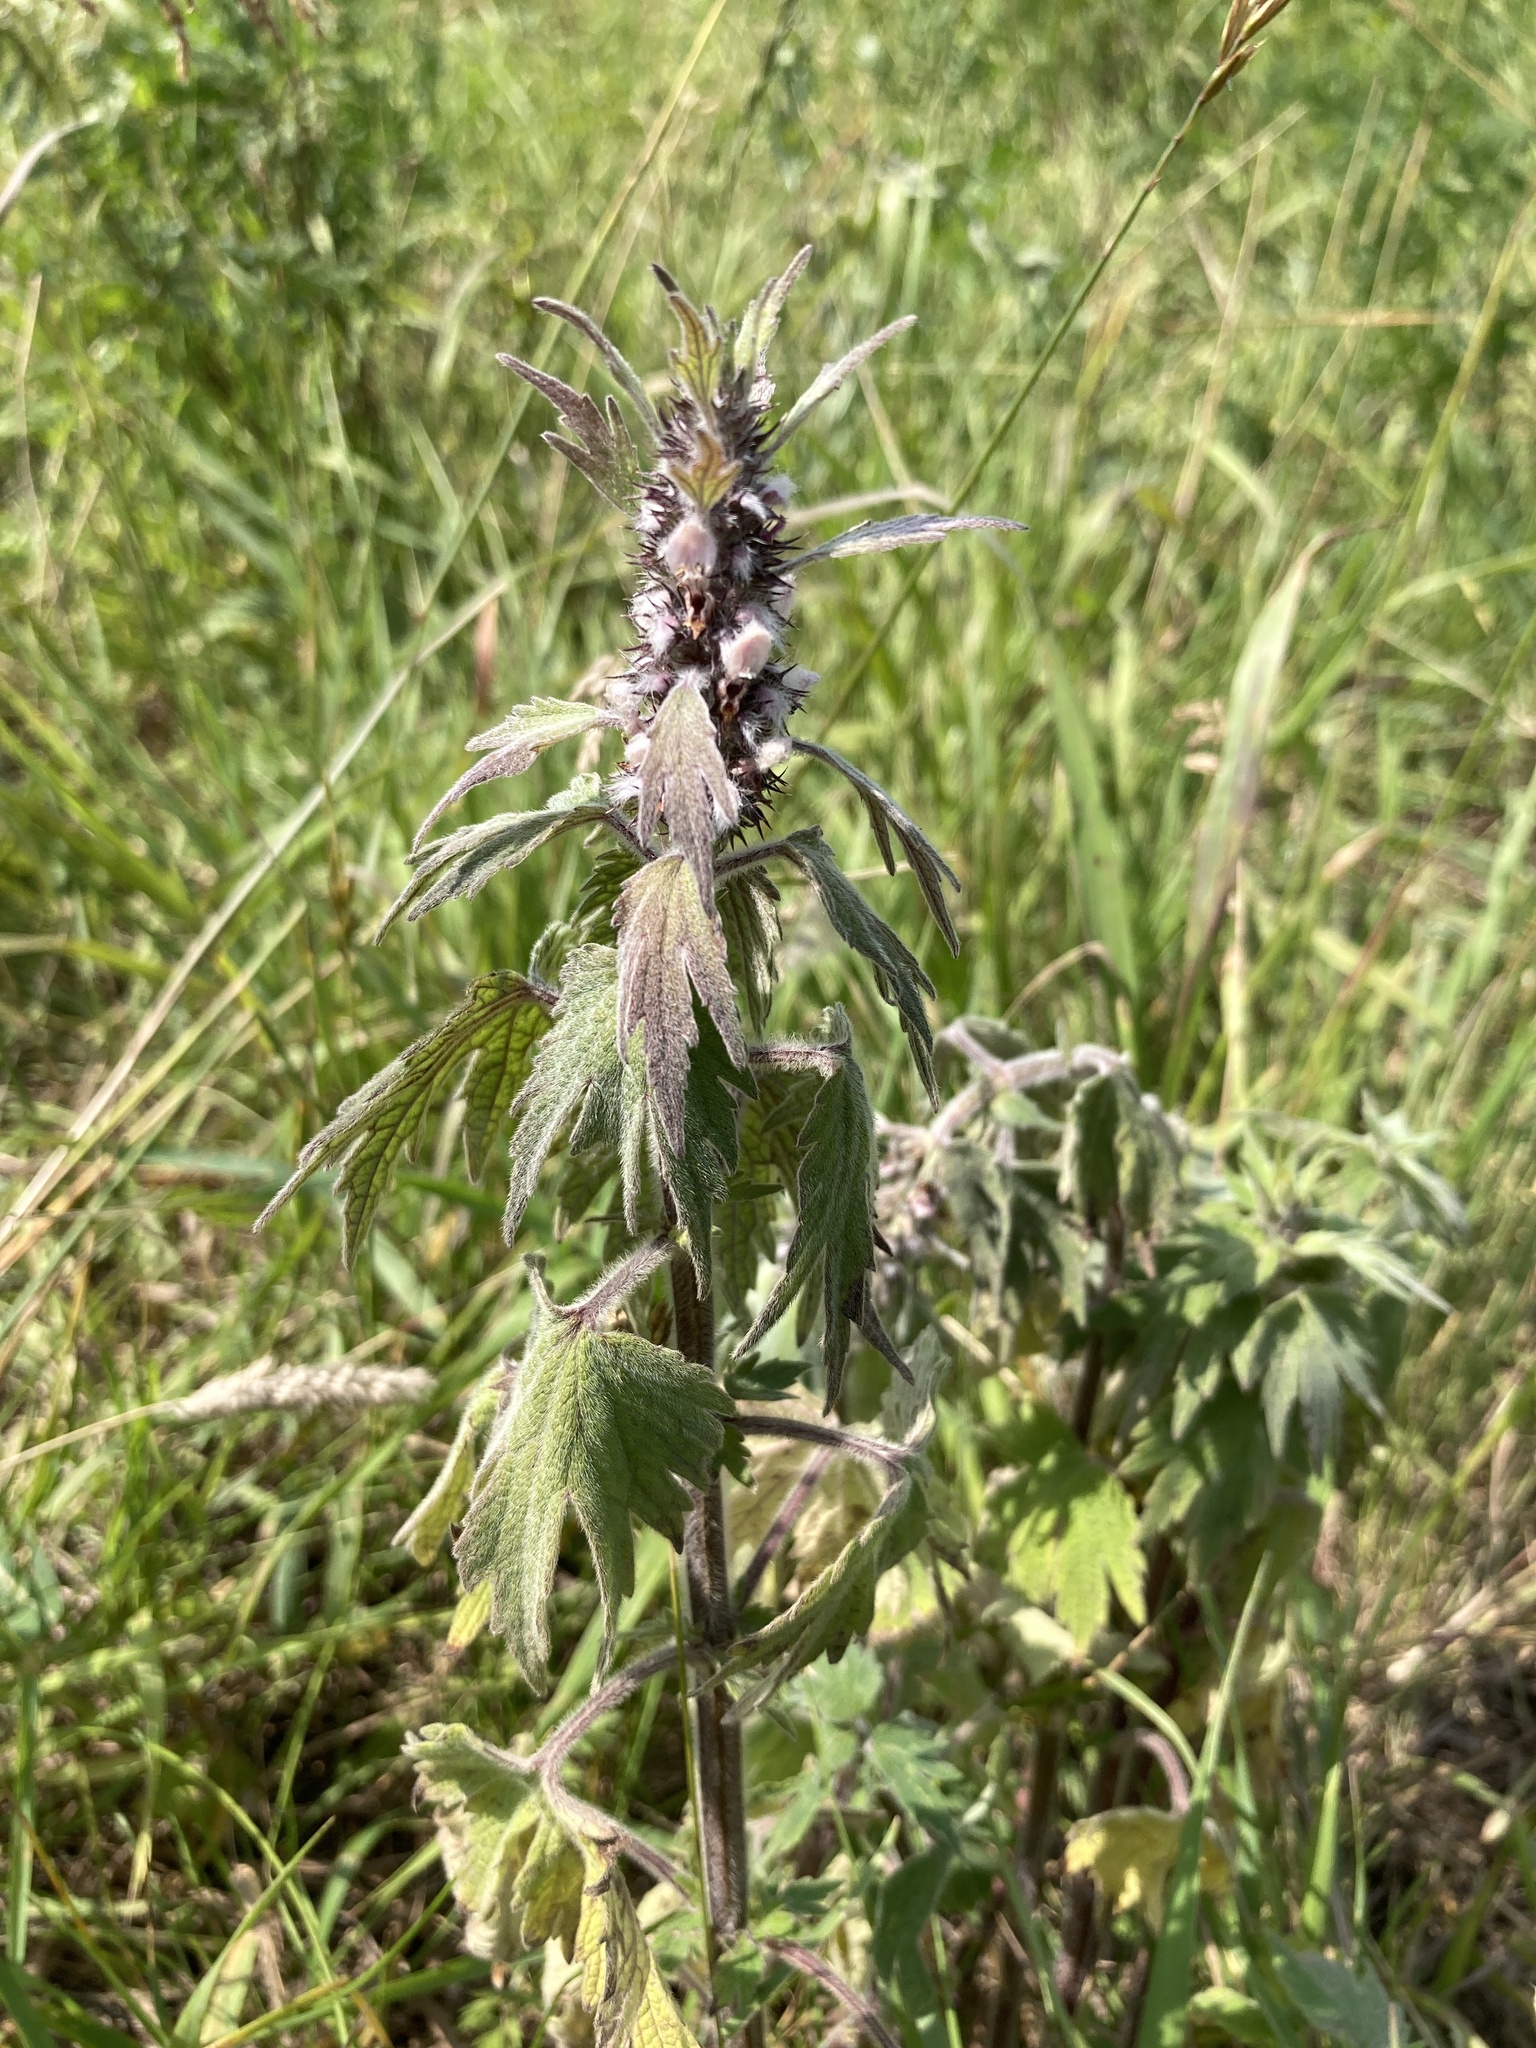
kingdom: Plantae
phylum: Tracheophyta
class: Magnoliopsida
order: Lamiales
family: Lamiaceae
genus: Leonurus
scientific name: Leonurus quinquelobatus
